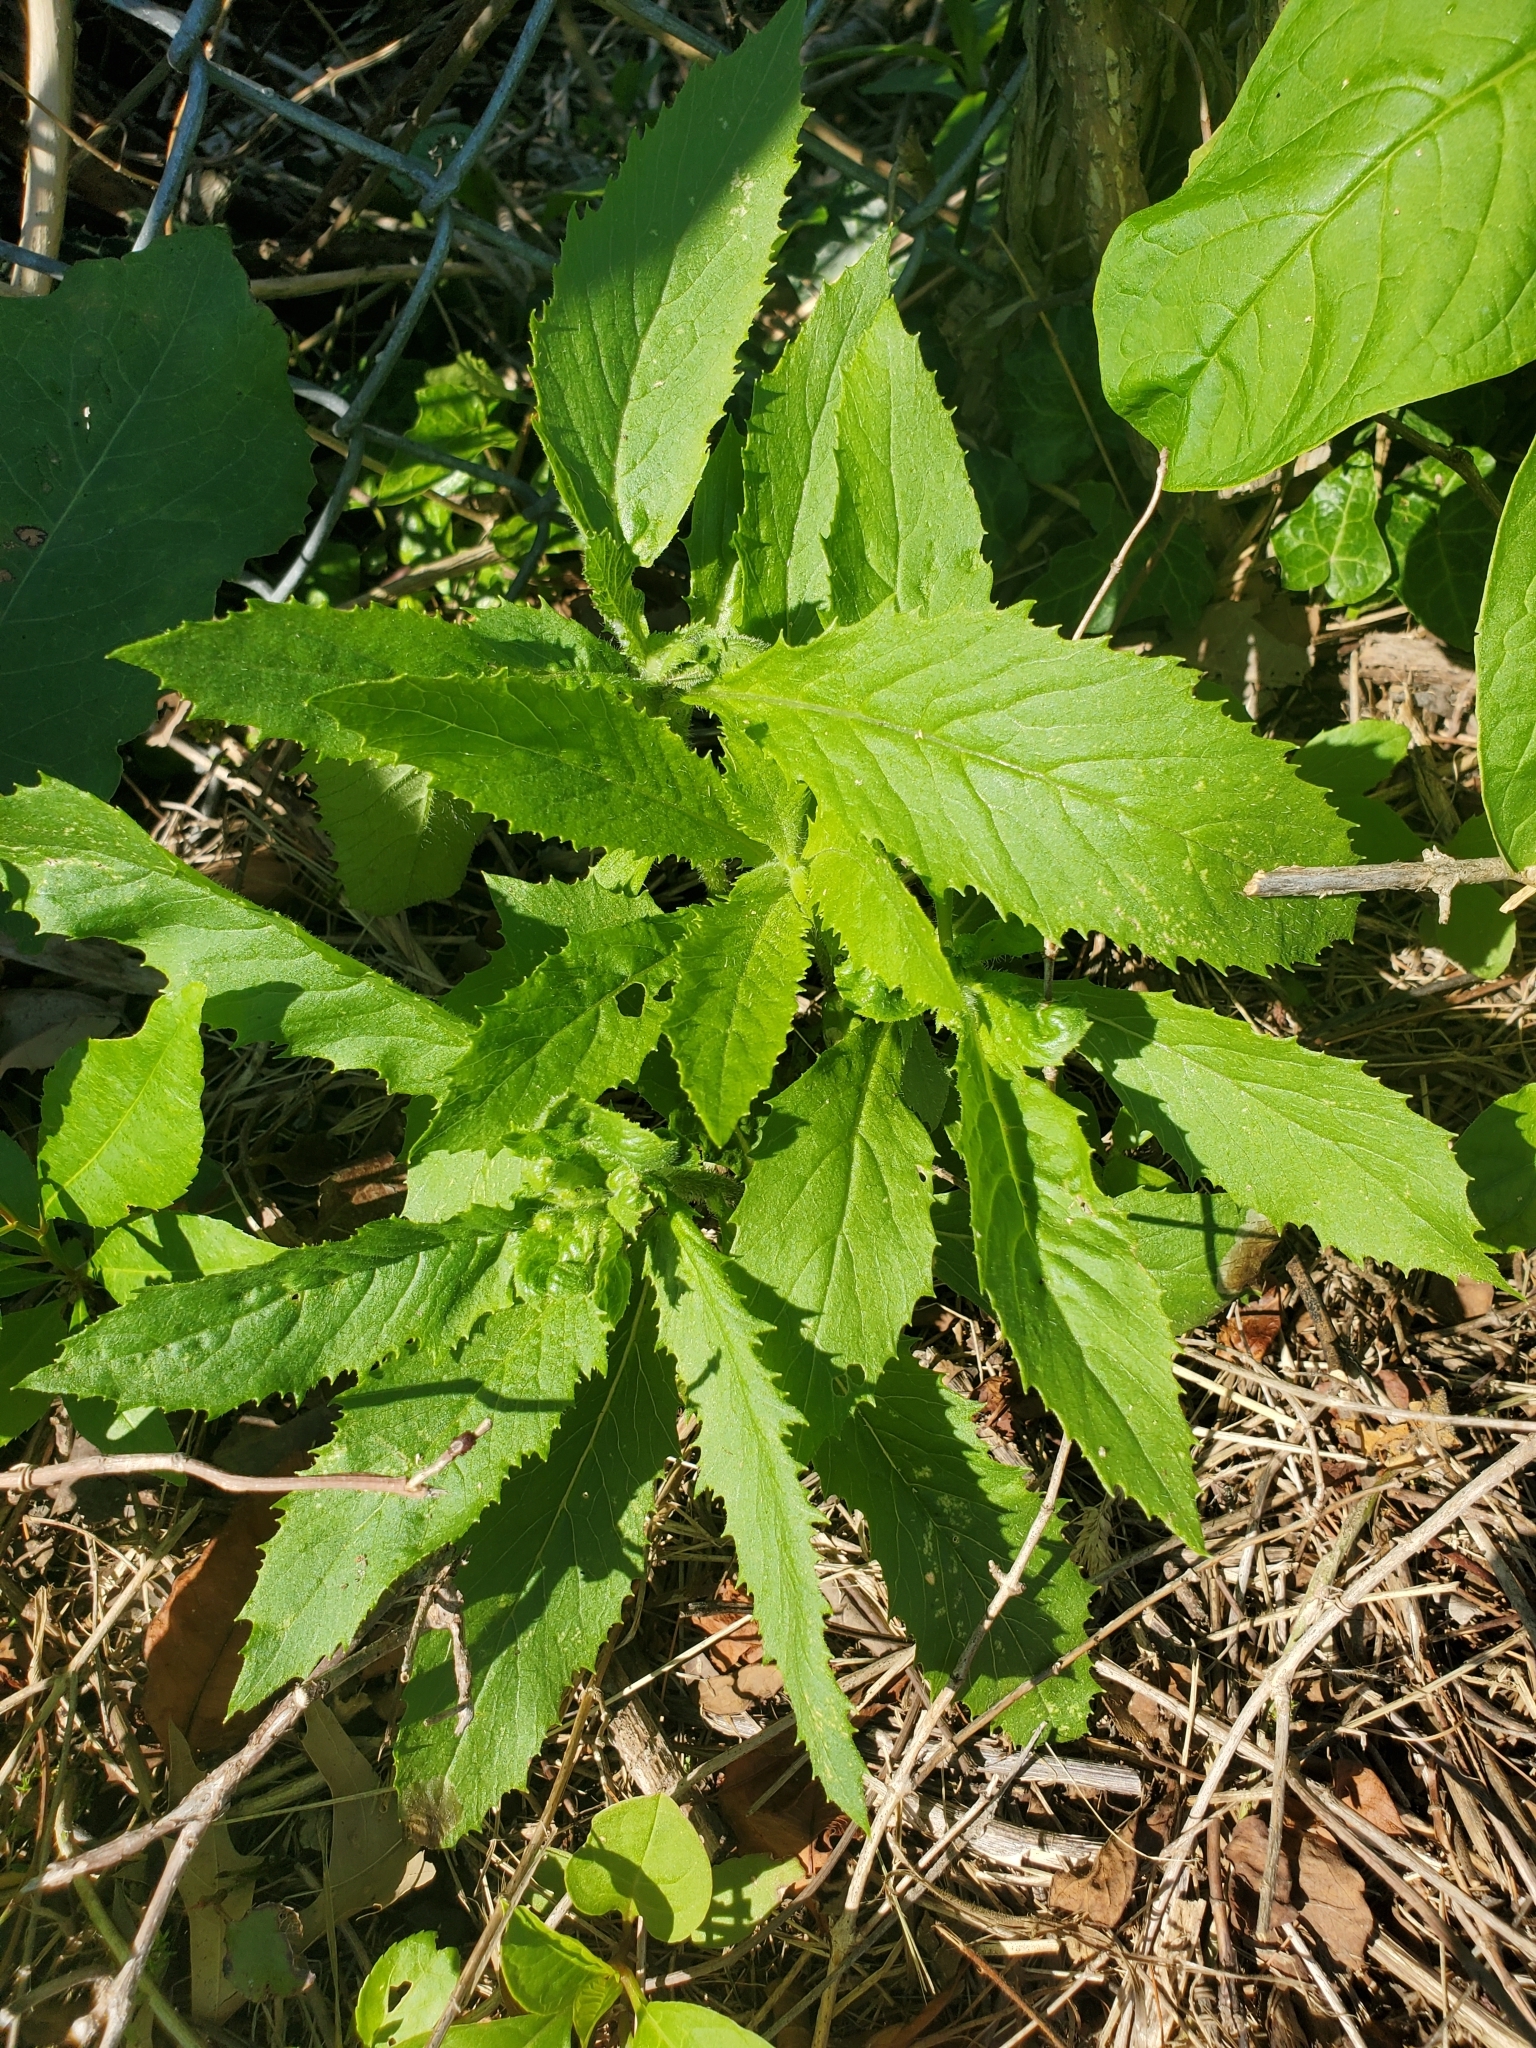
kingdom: Plantae
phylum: Tracheophyta
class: Magnoliopsida
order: Asterales
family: Asteraceae
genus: Erechtites
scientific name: Erechtites hieraciifolius
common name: American burnweed
